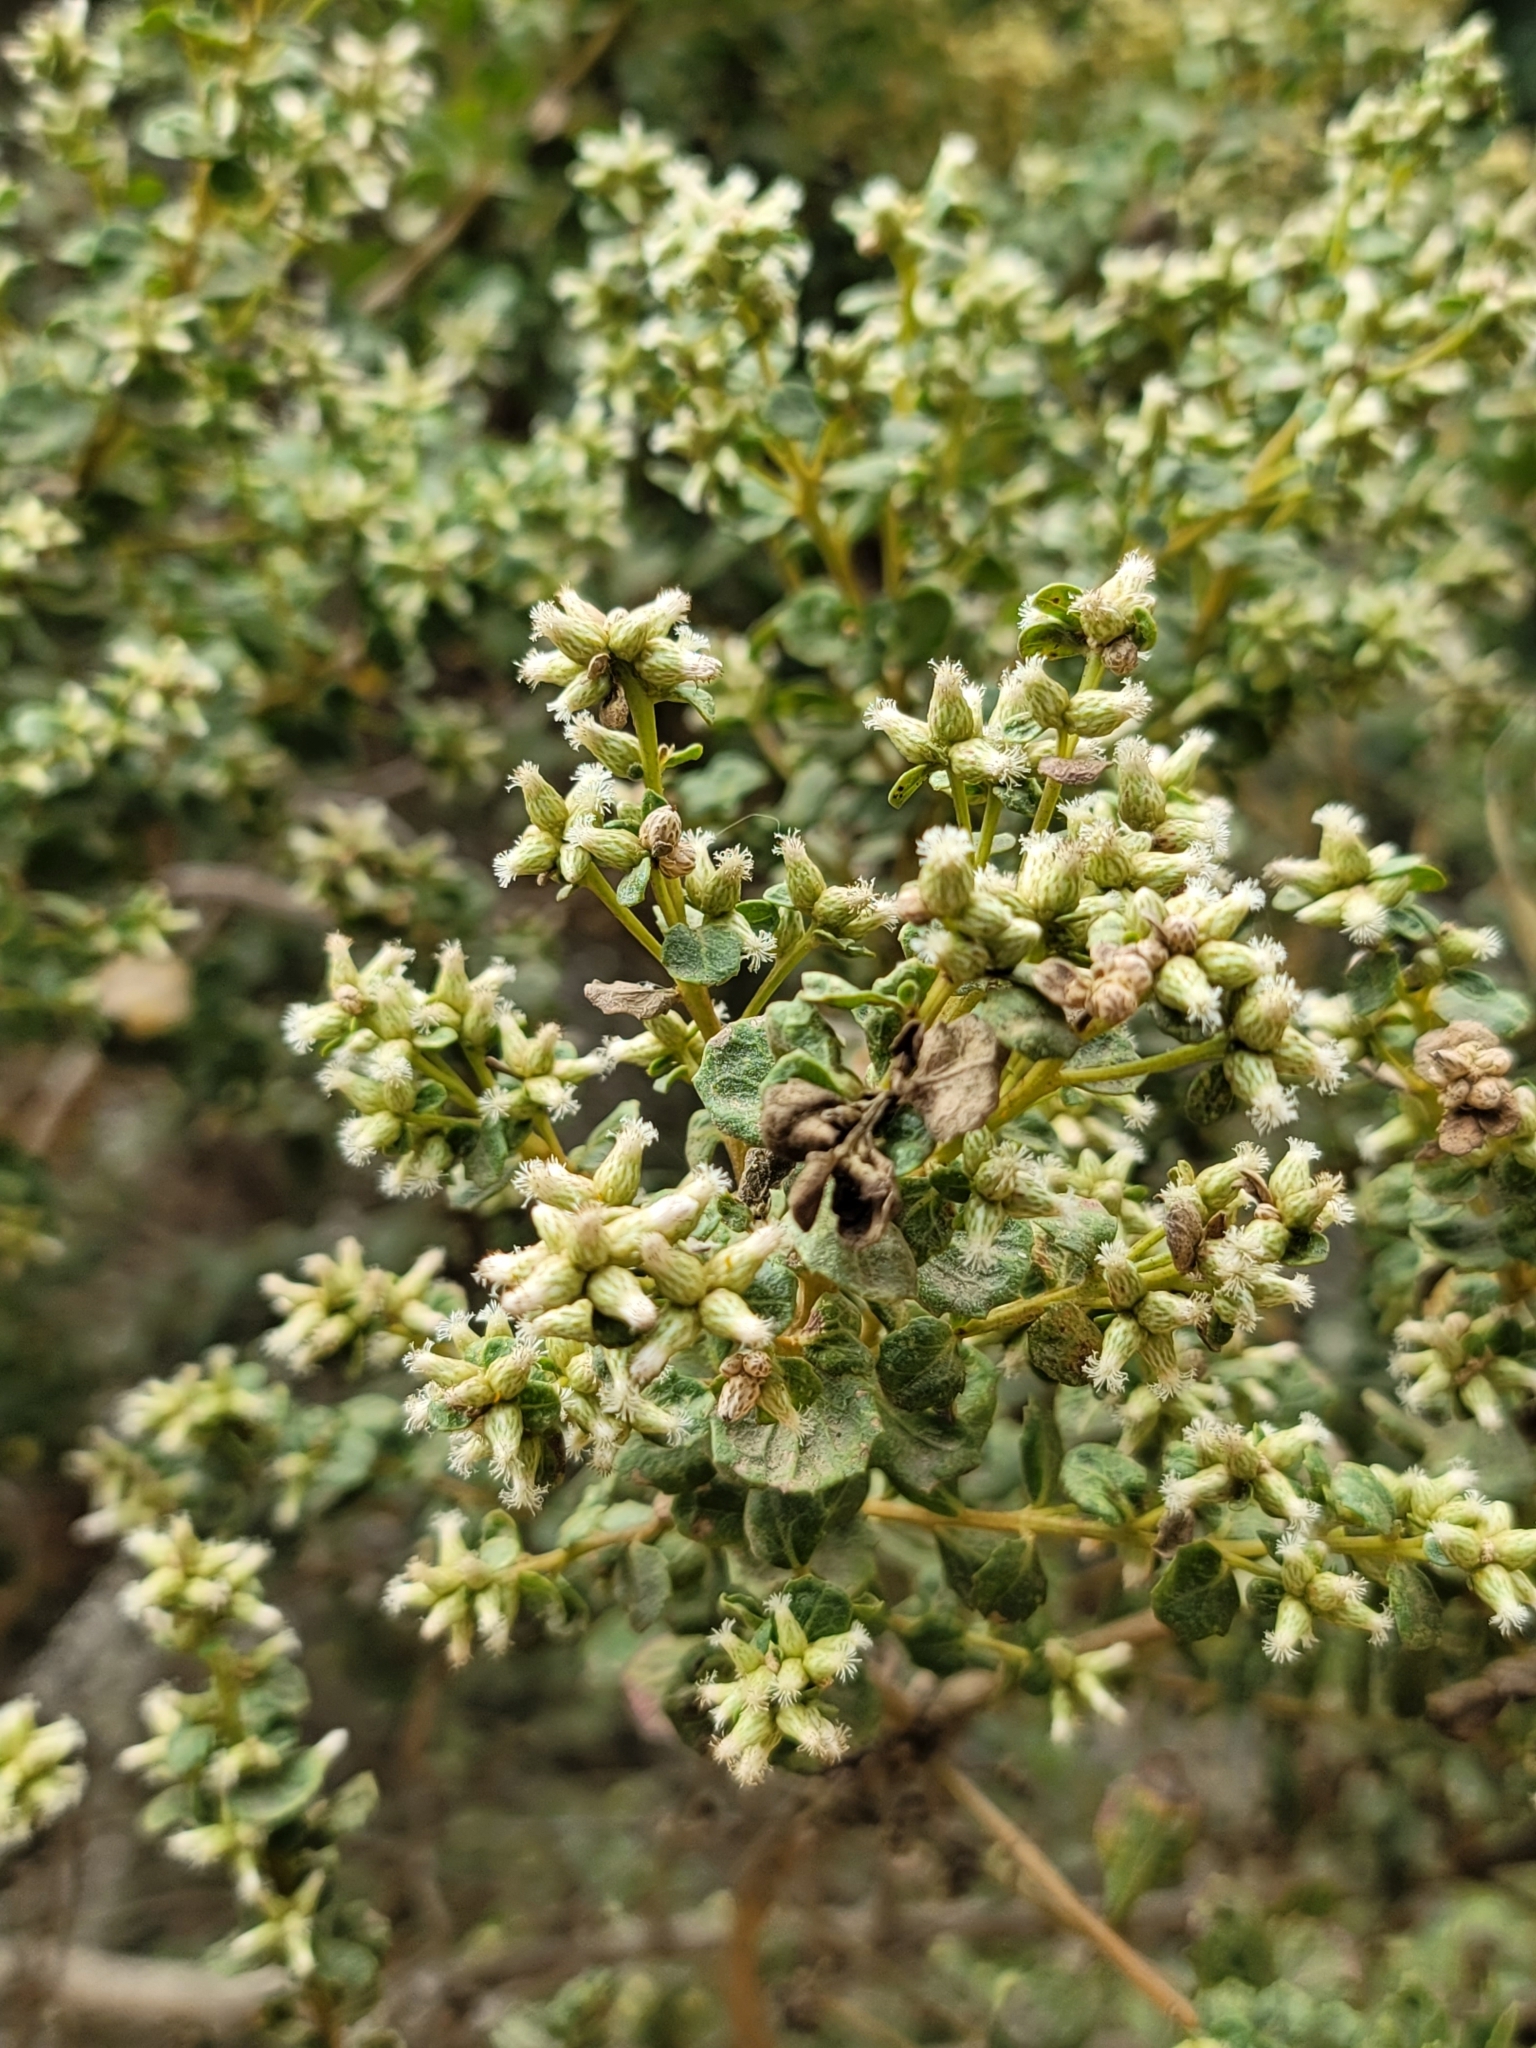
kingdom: Plantae
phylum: Tracheophyta
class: Magnoliopsida
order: Asterales
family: Asteraceae
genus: Baccharis
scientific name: Baccharis pilularis
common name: Coyotebrush
